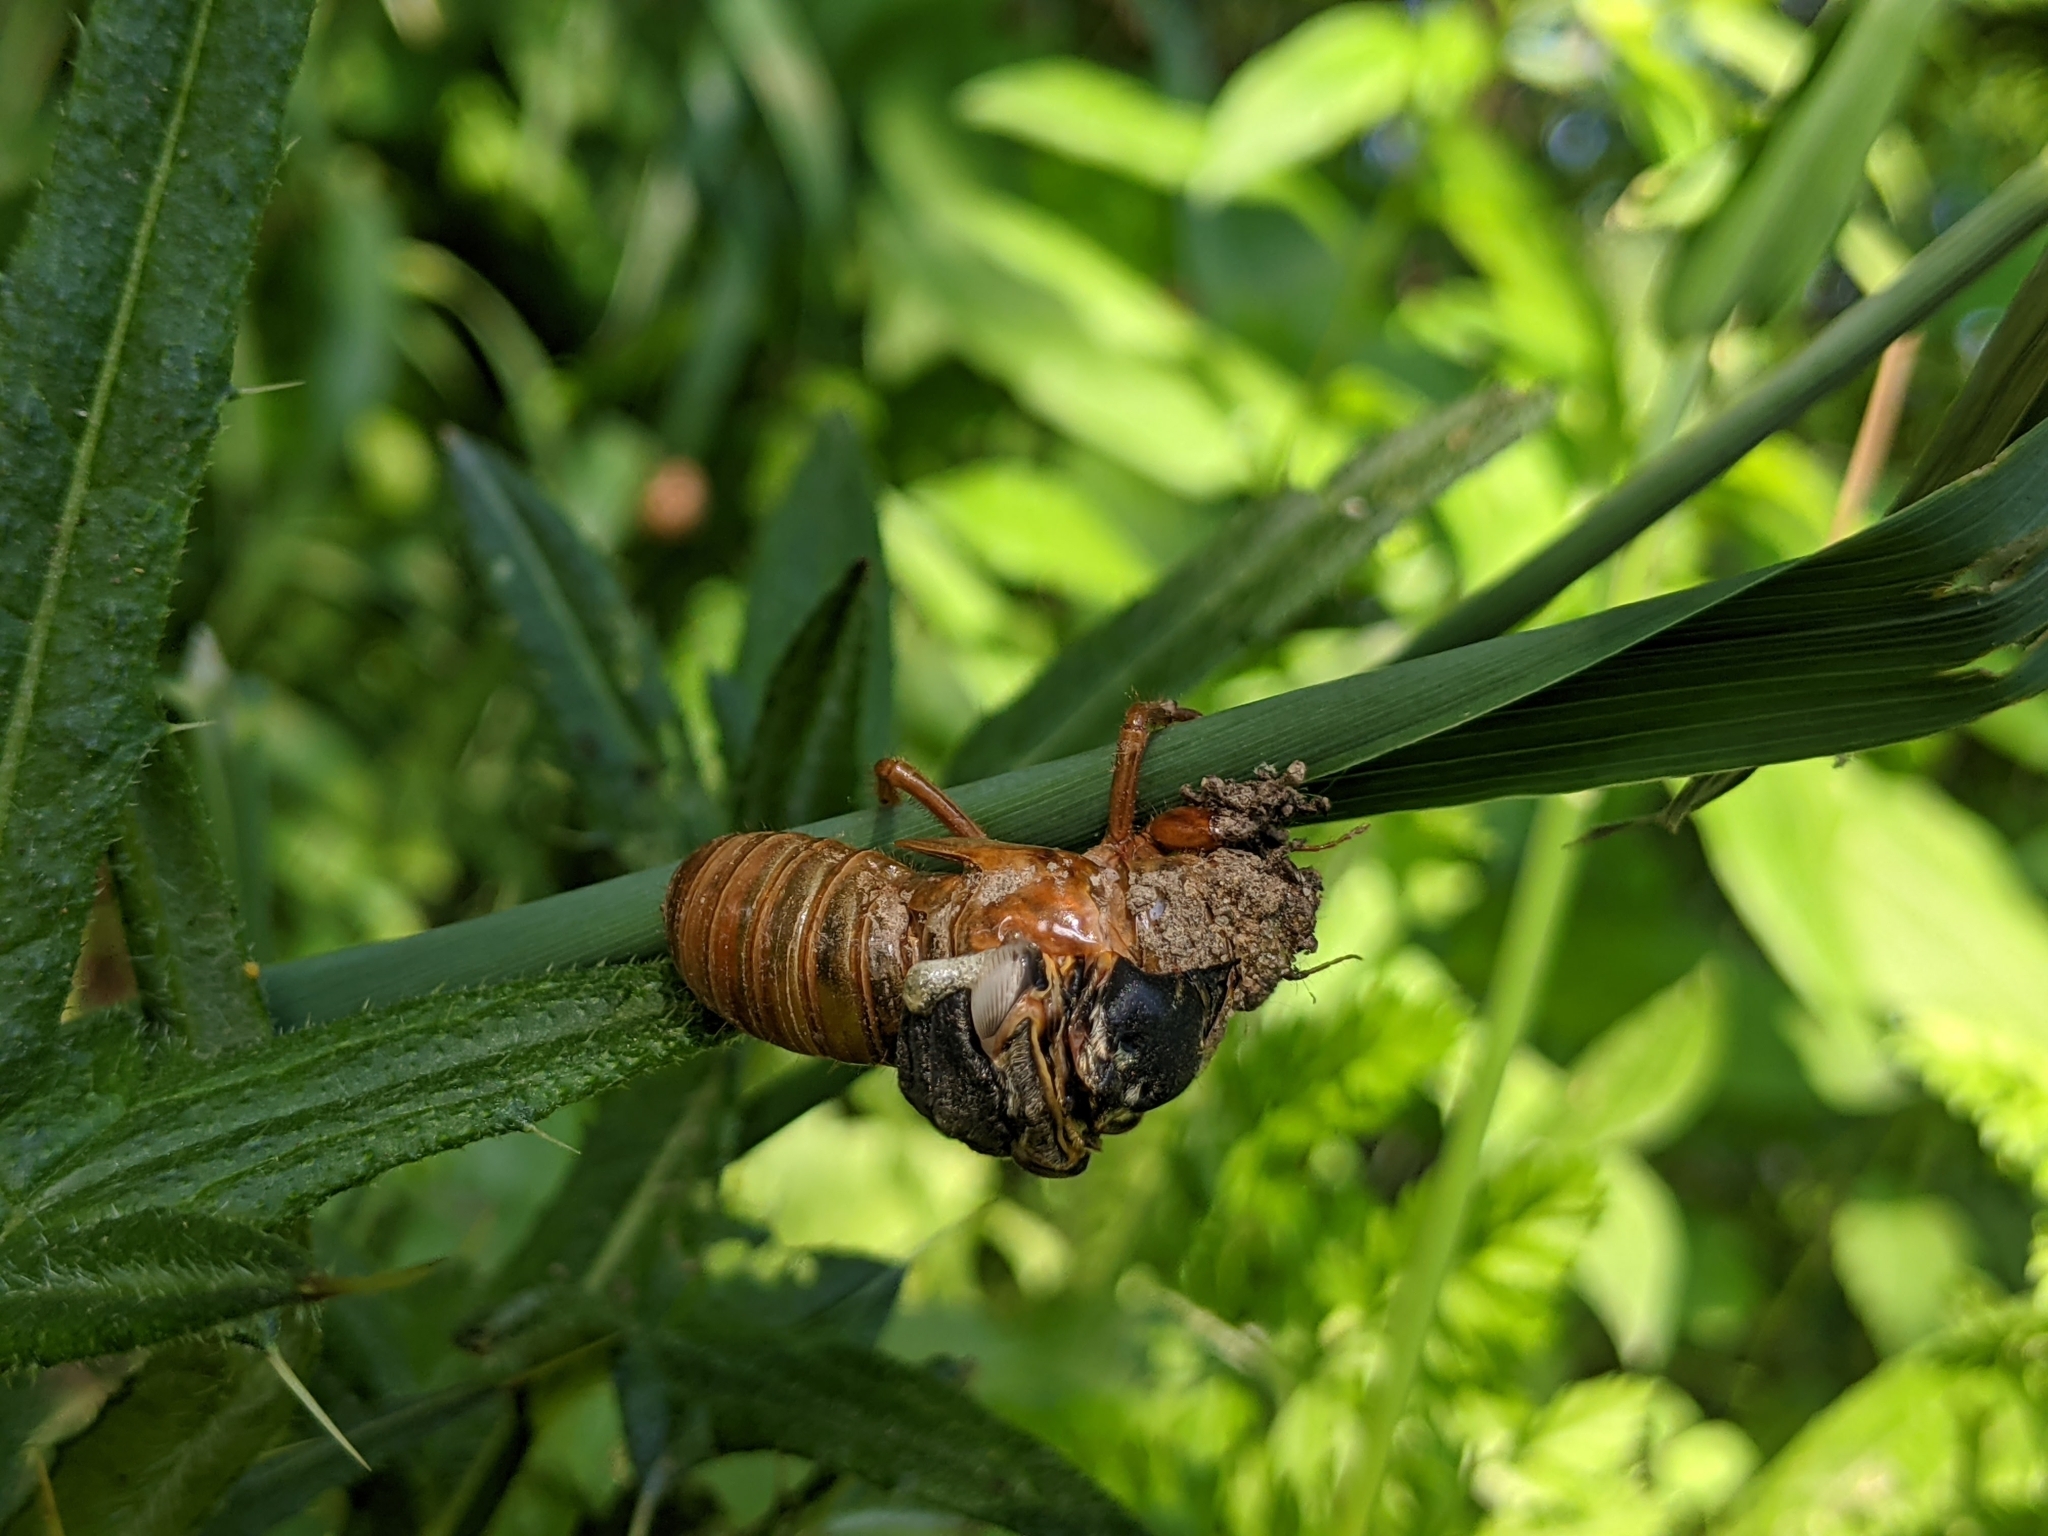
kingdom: Animalia
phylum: Arthropoda
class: Insecta
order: Hemiptera
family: Cicadidae
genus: Magicicada
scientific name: Magicicada septendecim
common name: Periodical cicada
